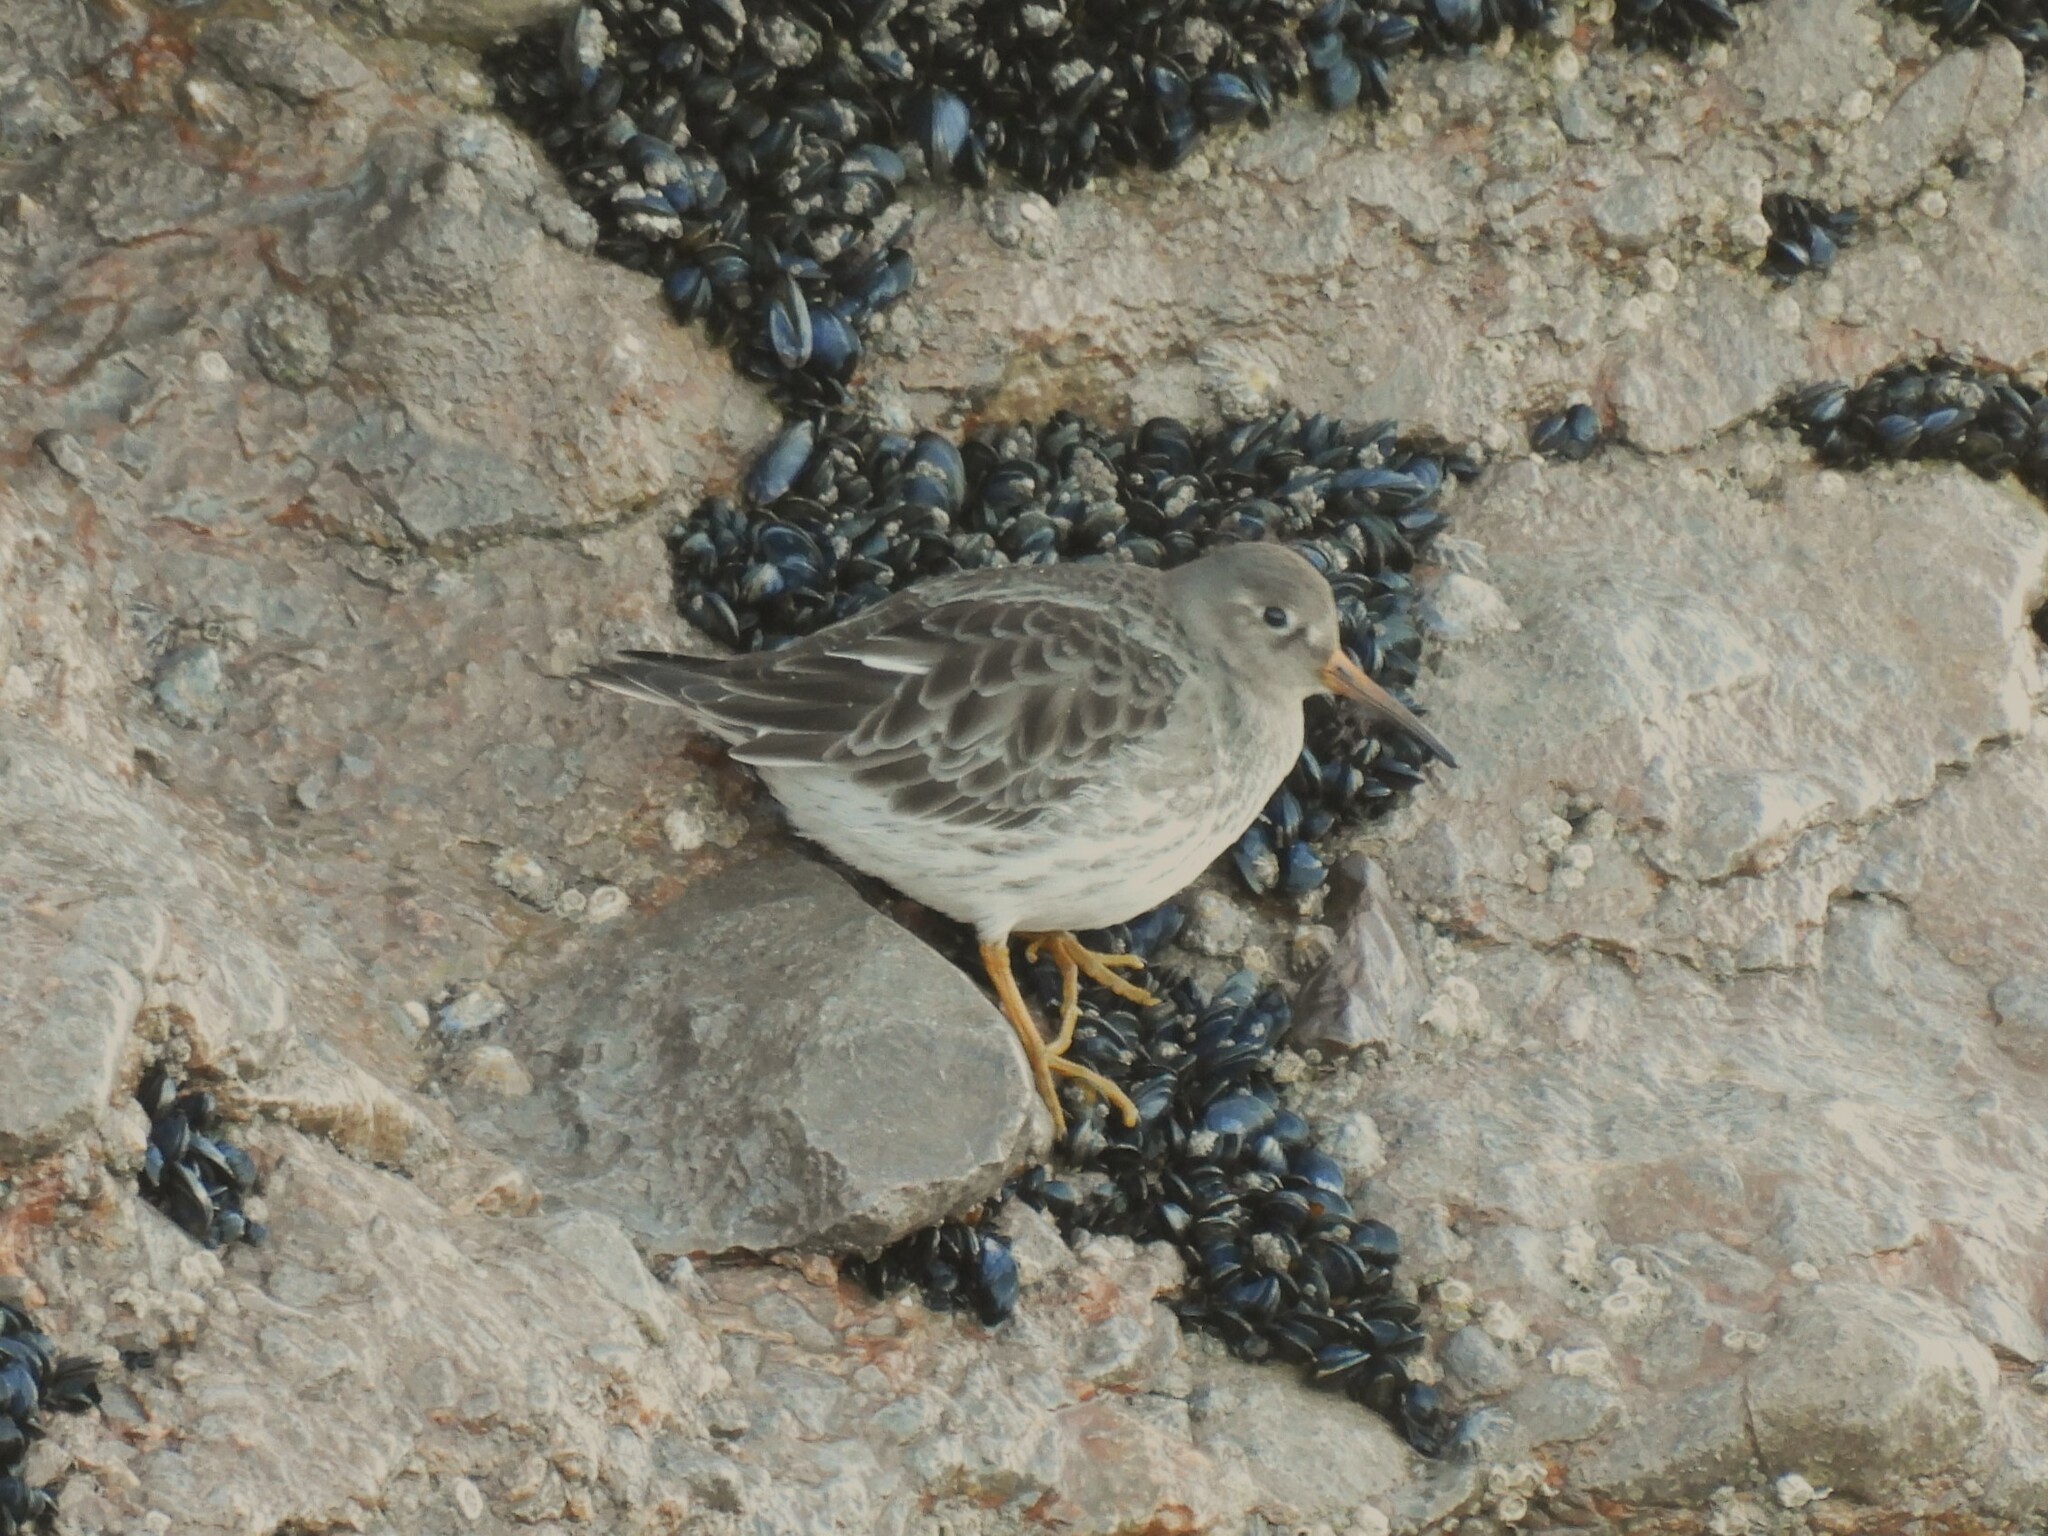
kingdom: Animalia
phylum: Chordata
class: Aves
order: Charadriiformes
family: Scolopacidae
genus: Calidris
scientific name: Calidris maritima
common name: Purple sandpiper
